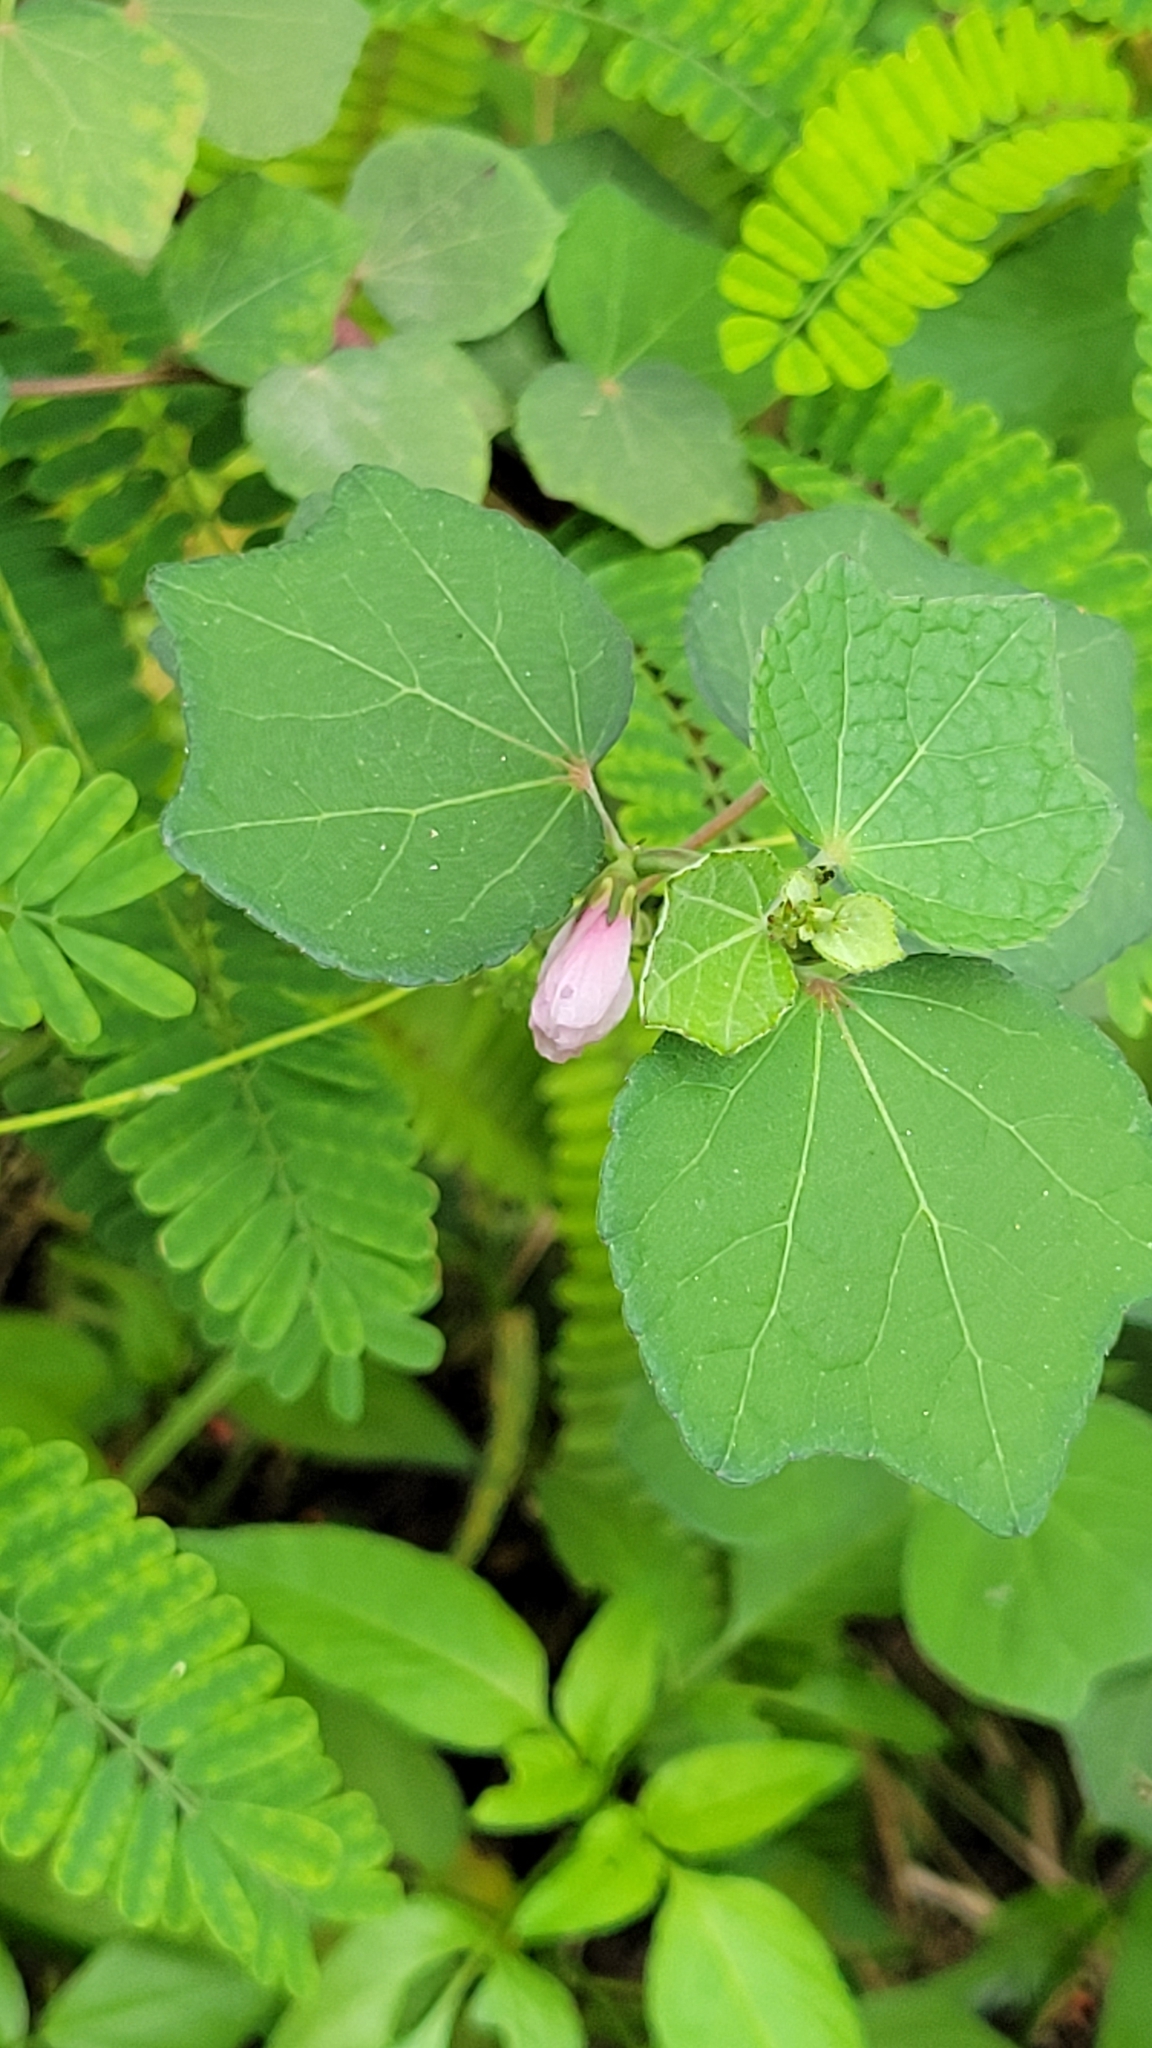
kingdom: Plantae
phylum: Tracheophyta
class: Magnoliopsida
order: Malvales
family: Malvaceae
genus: Urena
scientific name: Urena lobata
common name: Caesarweed
